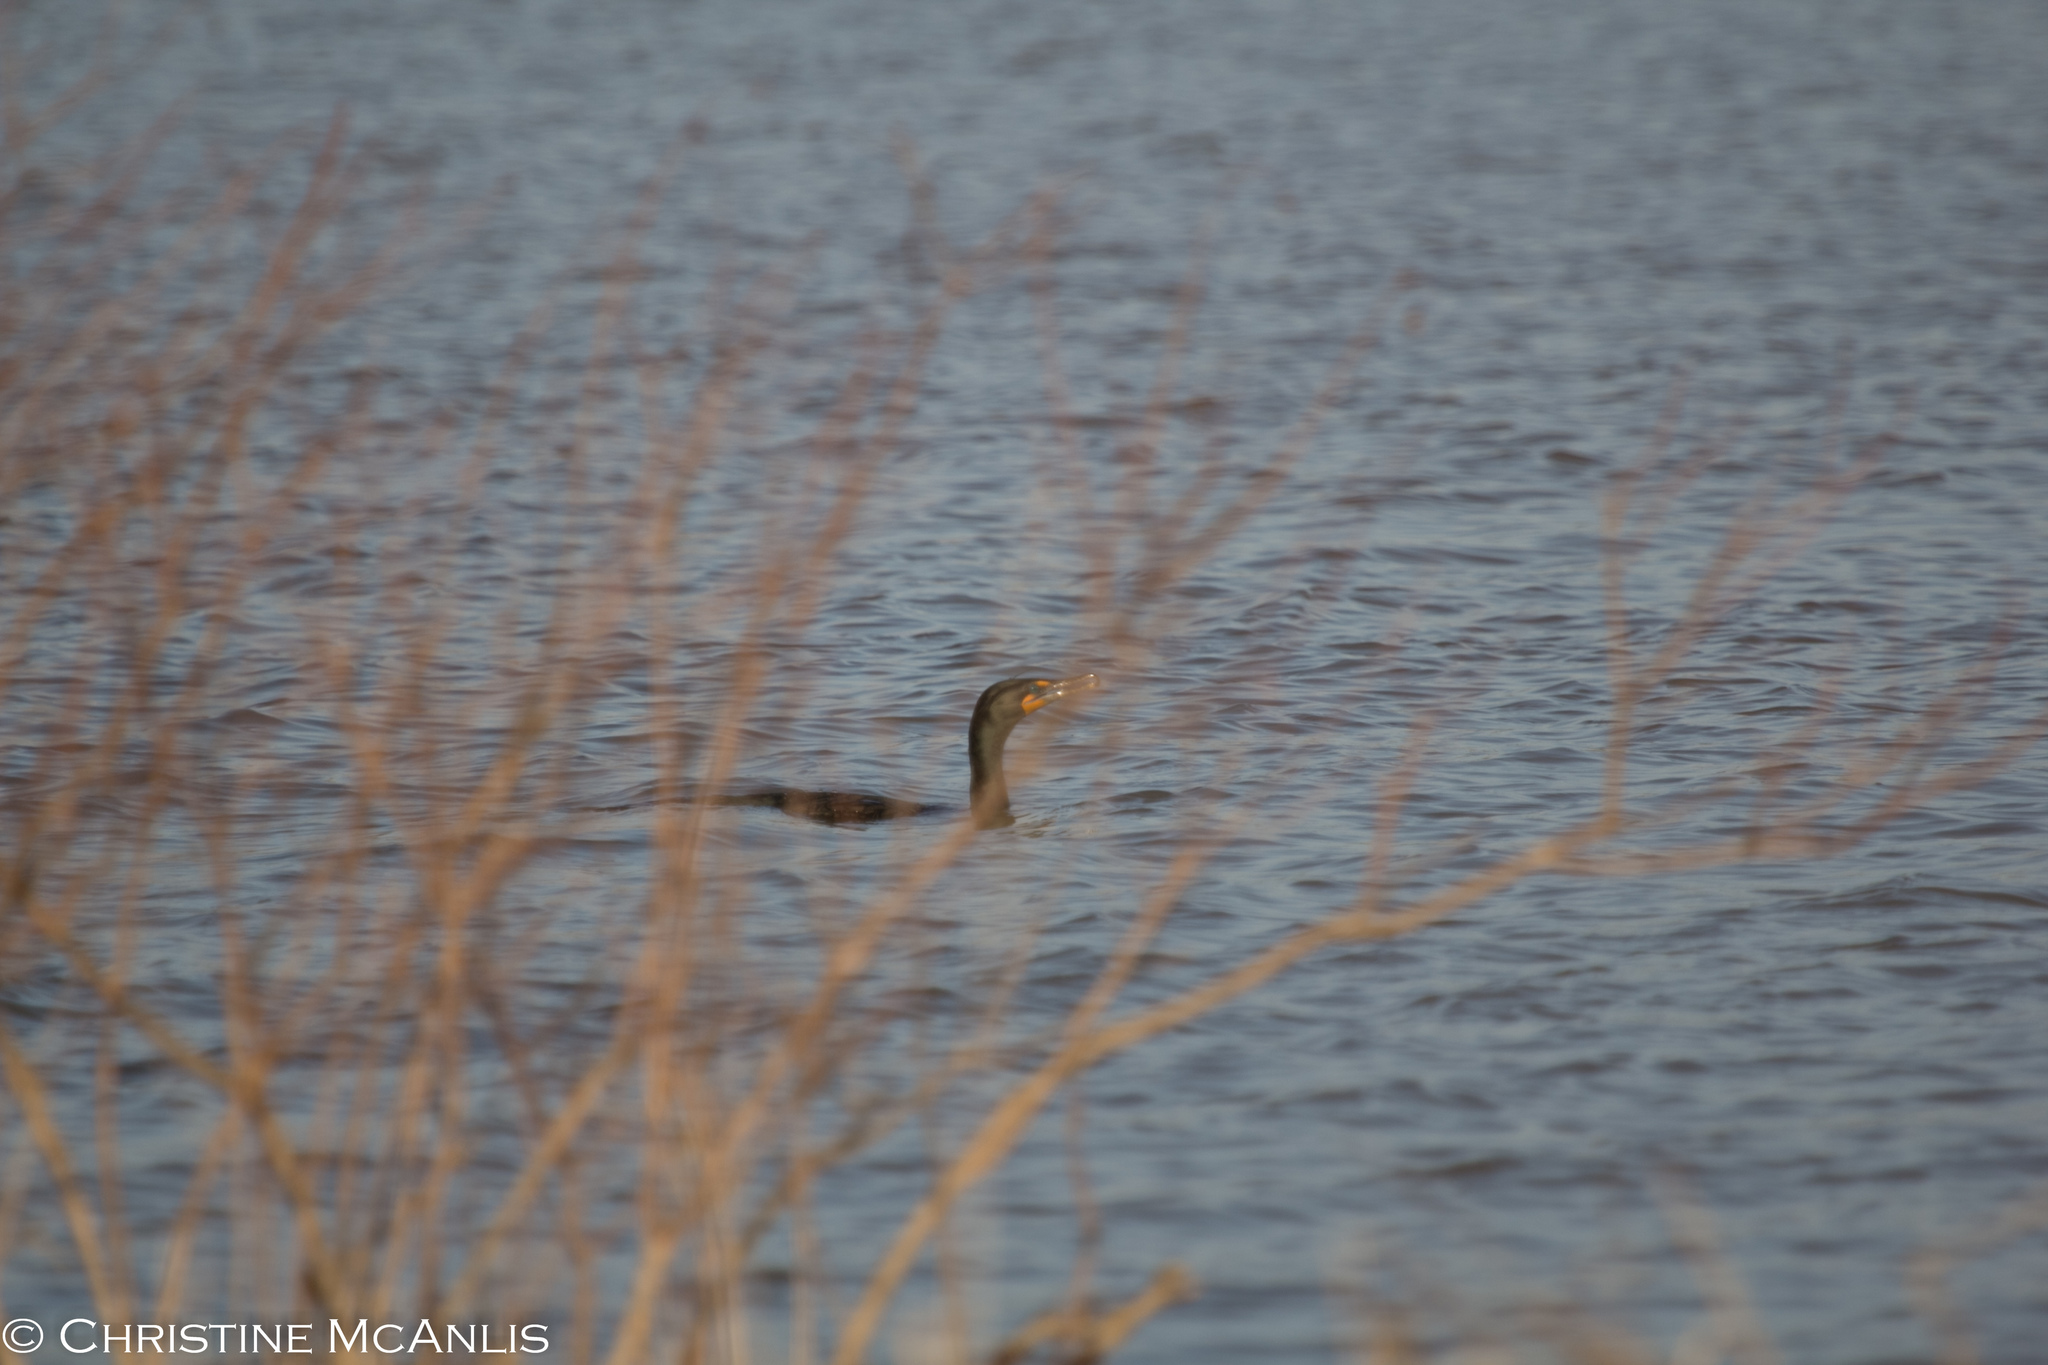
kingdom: Animalia
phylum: Chordata
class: Aves
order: Suliformes
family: Phalacrocoracidae
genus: Phalacrocorax
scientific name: Phalacrocorax auritus
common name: Double-crested cormorant
